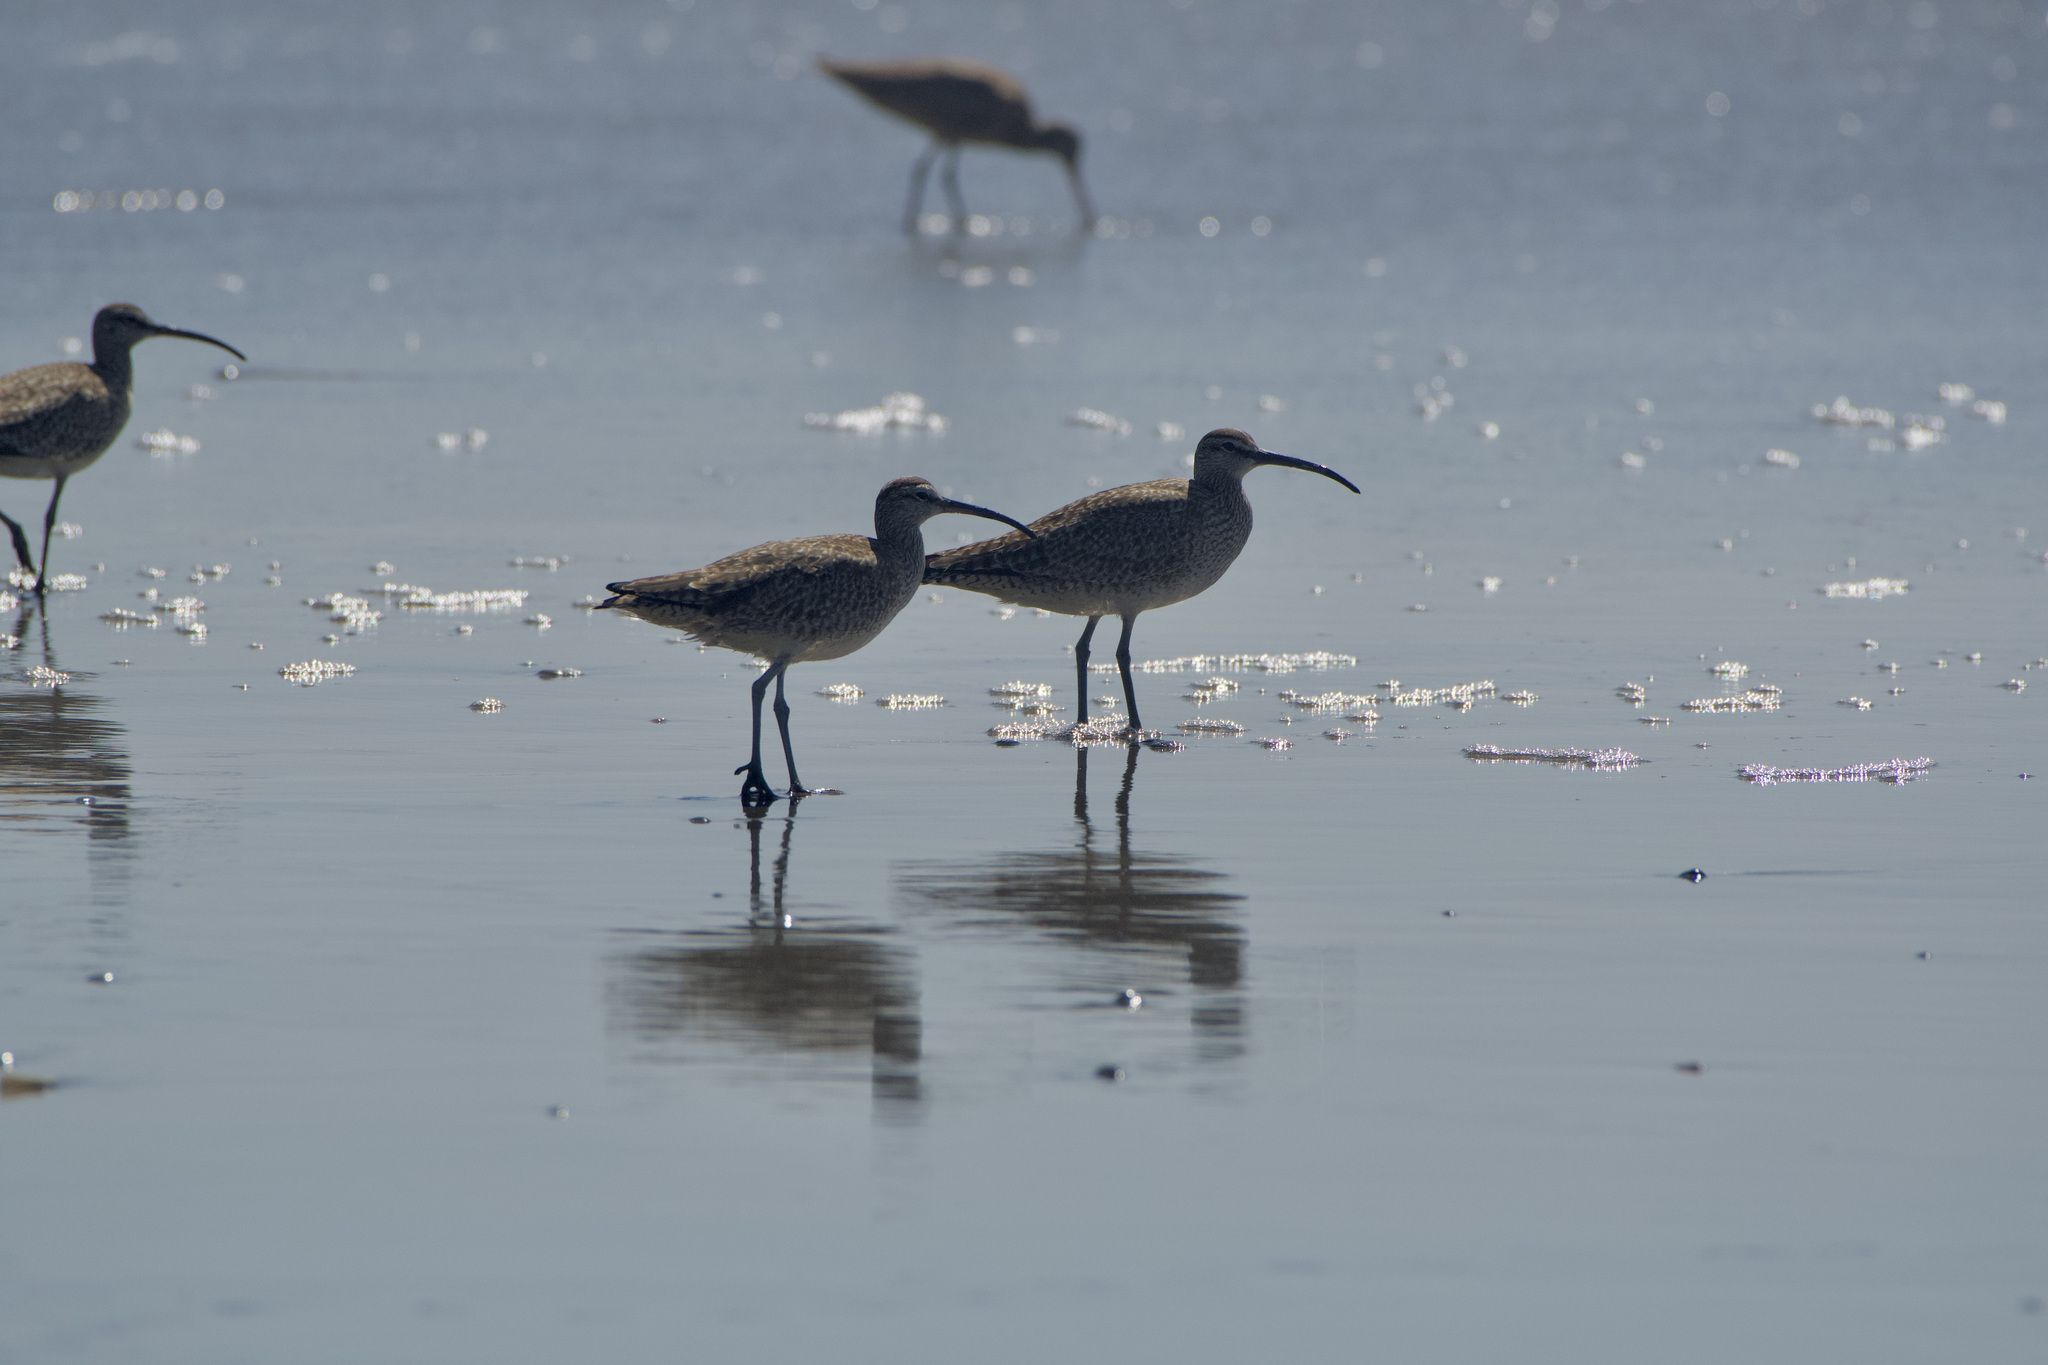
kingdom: Animalia
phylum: Chordata
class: Aves
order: Charadriiformes
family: Scolopacidae
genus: Numenius
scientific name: Numenius phaeopus
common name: Whimbrel
